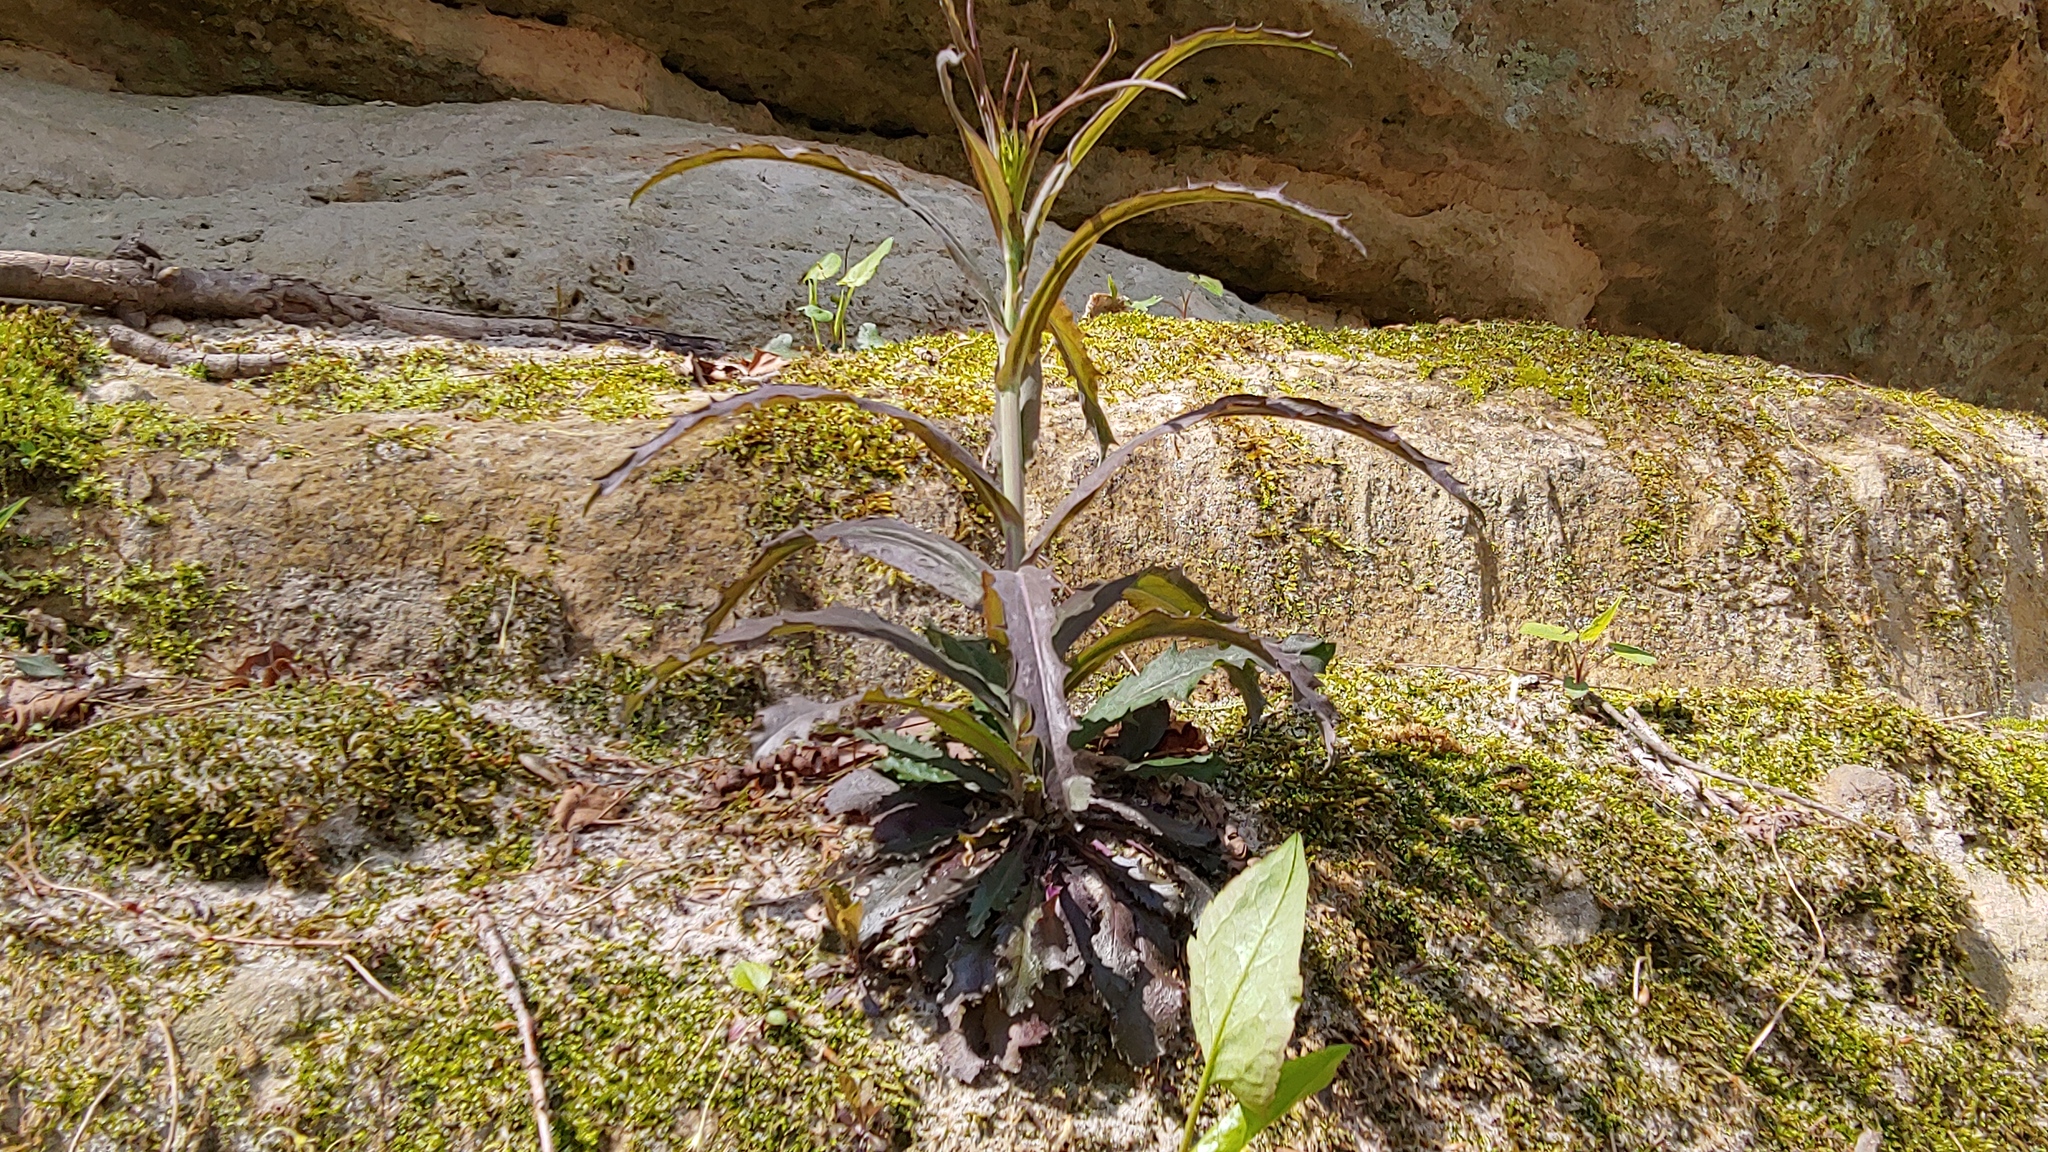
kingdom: Plantae
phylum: Tracheophyta
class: Magnoliopsida
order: Brassicales
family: Brassicaceae
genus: Borodinia
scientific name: Borodinia laevigata
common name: Smooth rockcress
